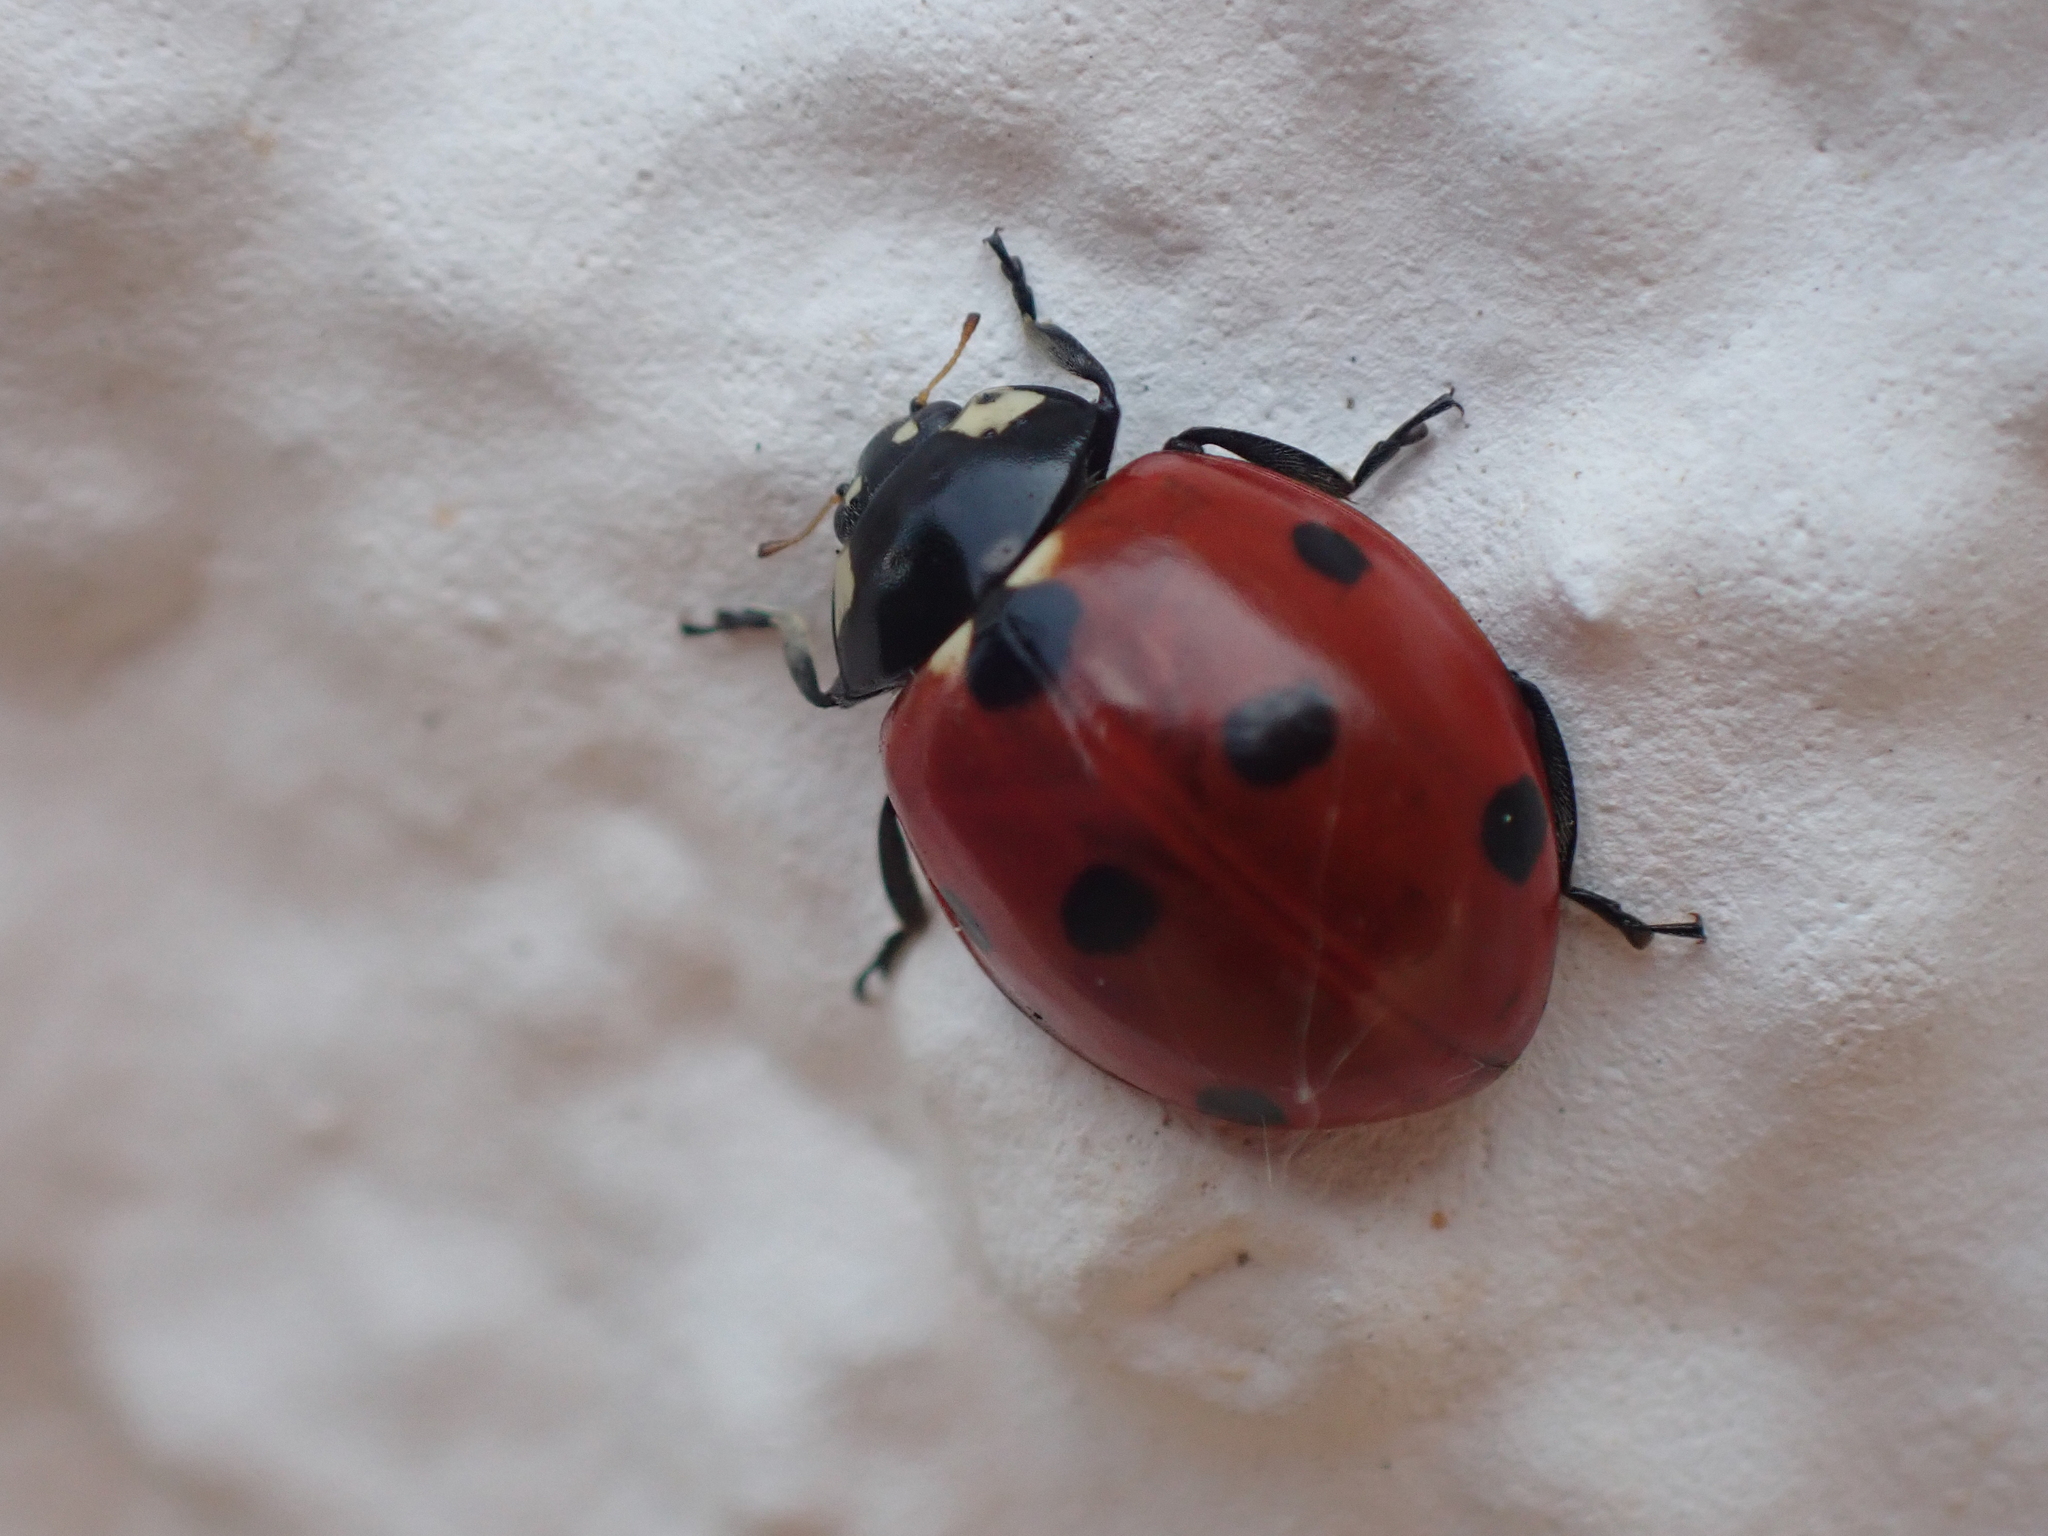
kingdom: Animalia
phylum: Arthropoda
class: Insecta
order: Coleoptera
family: Coccinellidae
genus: Coccinella
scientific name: Coccinella septempunctata
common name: Sevenspotted lady beetle
